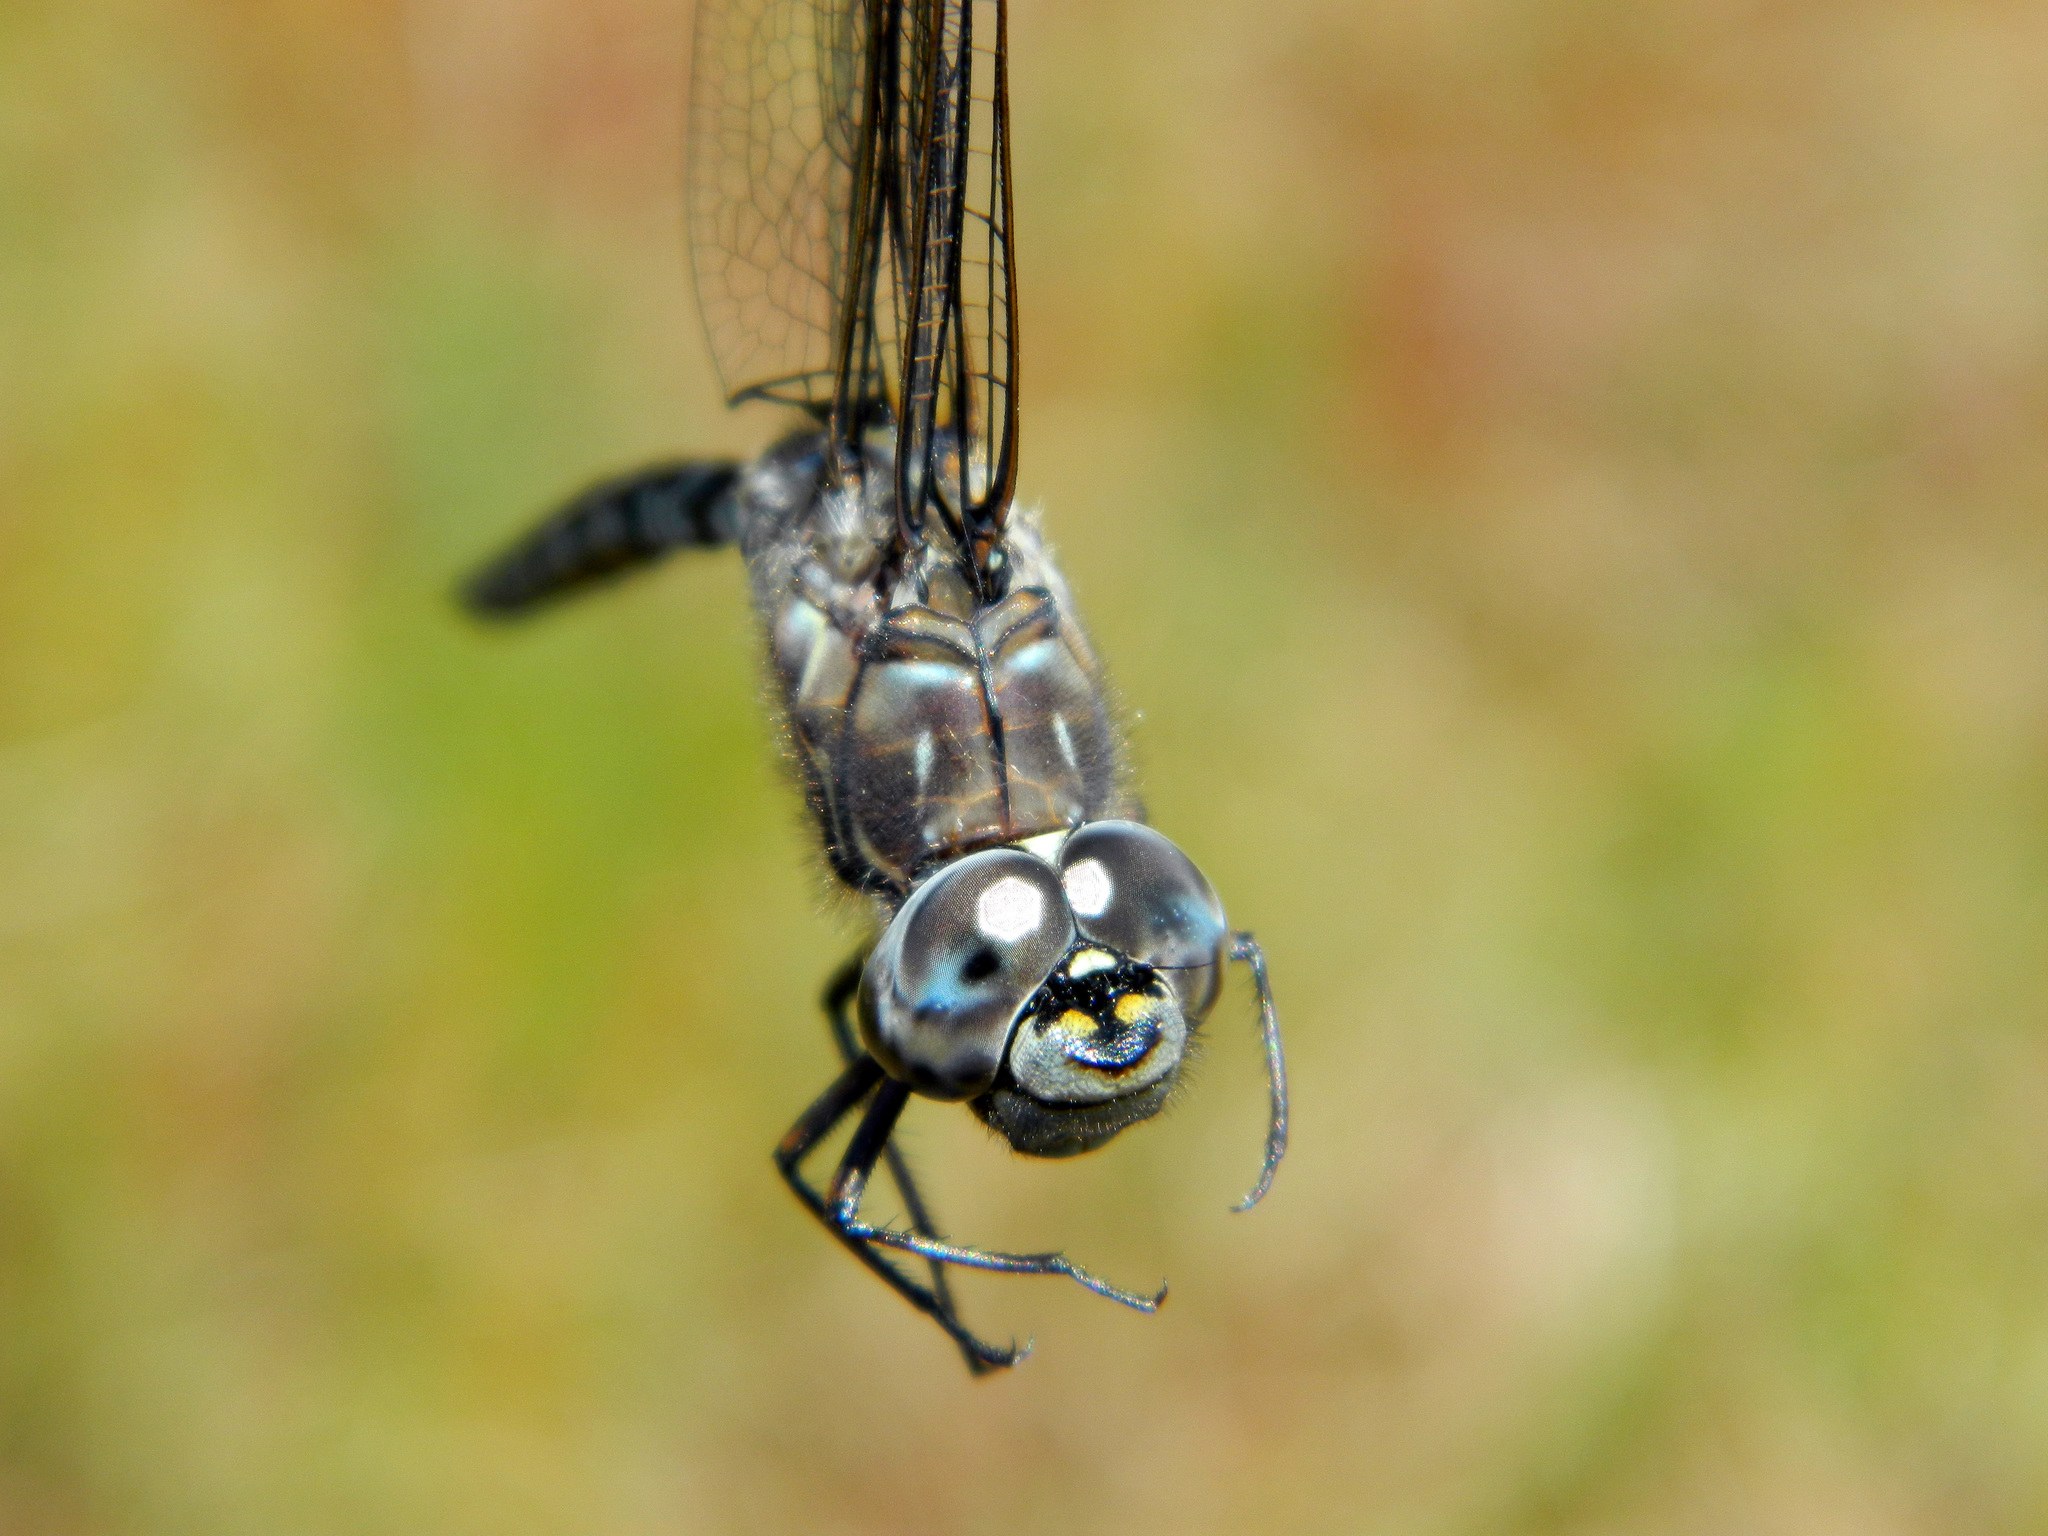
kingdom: Animalia
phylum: Arthropoda
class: Insecta
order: Odonata
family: Aeshnidae
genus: Aeshna
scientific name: Aeshna sitchensis
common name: Zigzag darner
